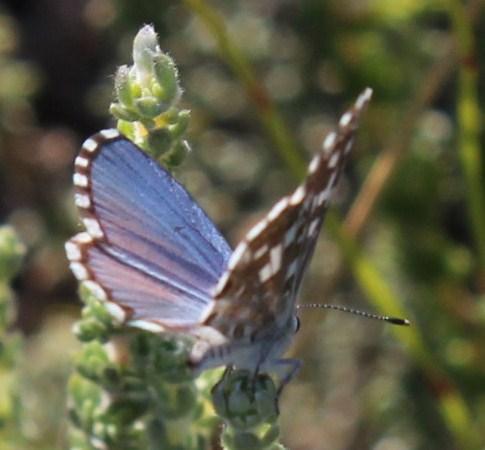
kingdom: Animalia
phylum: Arthropoda
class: Insecta
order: Lepidoptera
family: Lycaenidae
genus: Tarucus
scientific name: Tarucus thespis
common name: Vivid dotted blue
